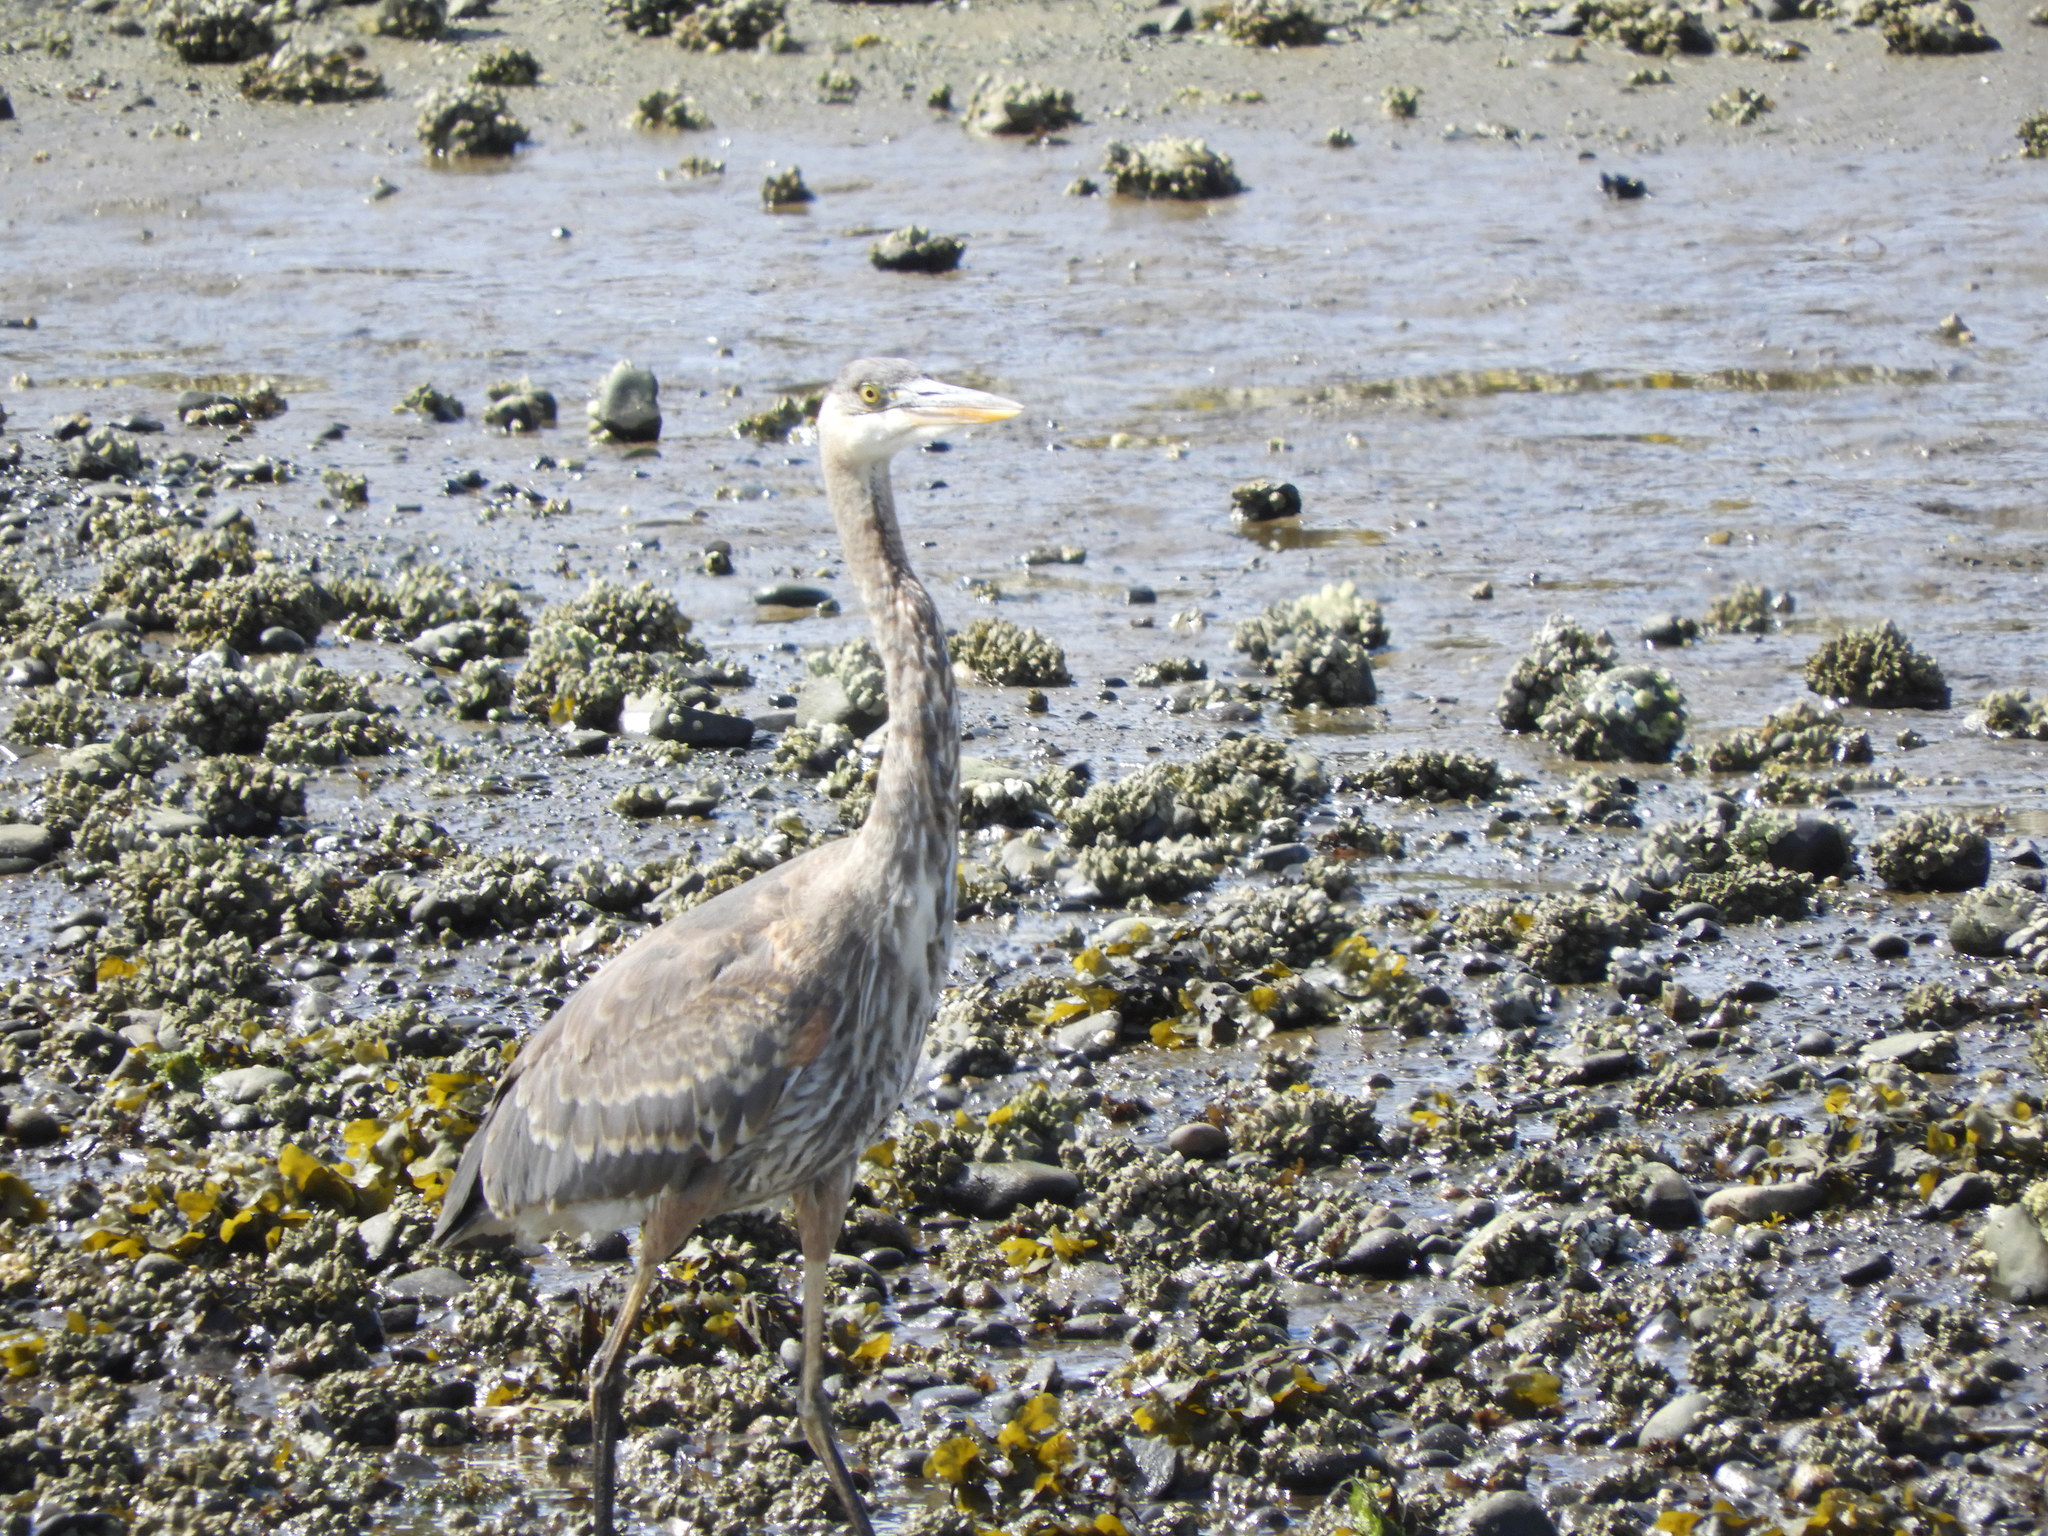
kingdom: Animalia
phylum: Chordata
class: Aves
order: Pelecaniformes
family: Ardeidae
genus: Ardea
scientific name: Ardea herodias
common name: Great blue heron
